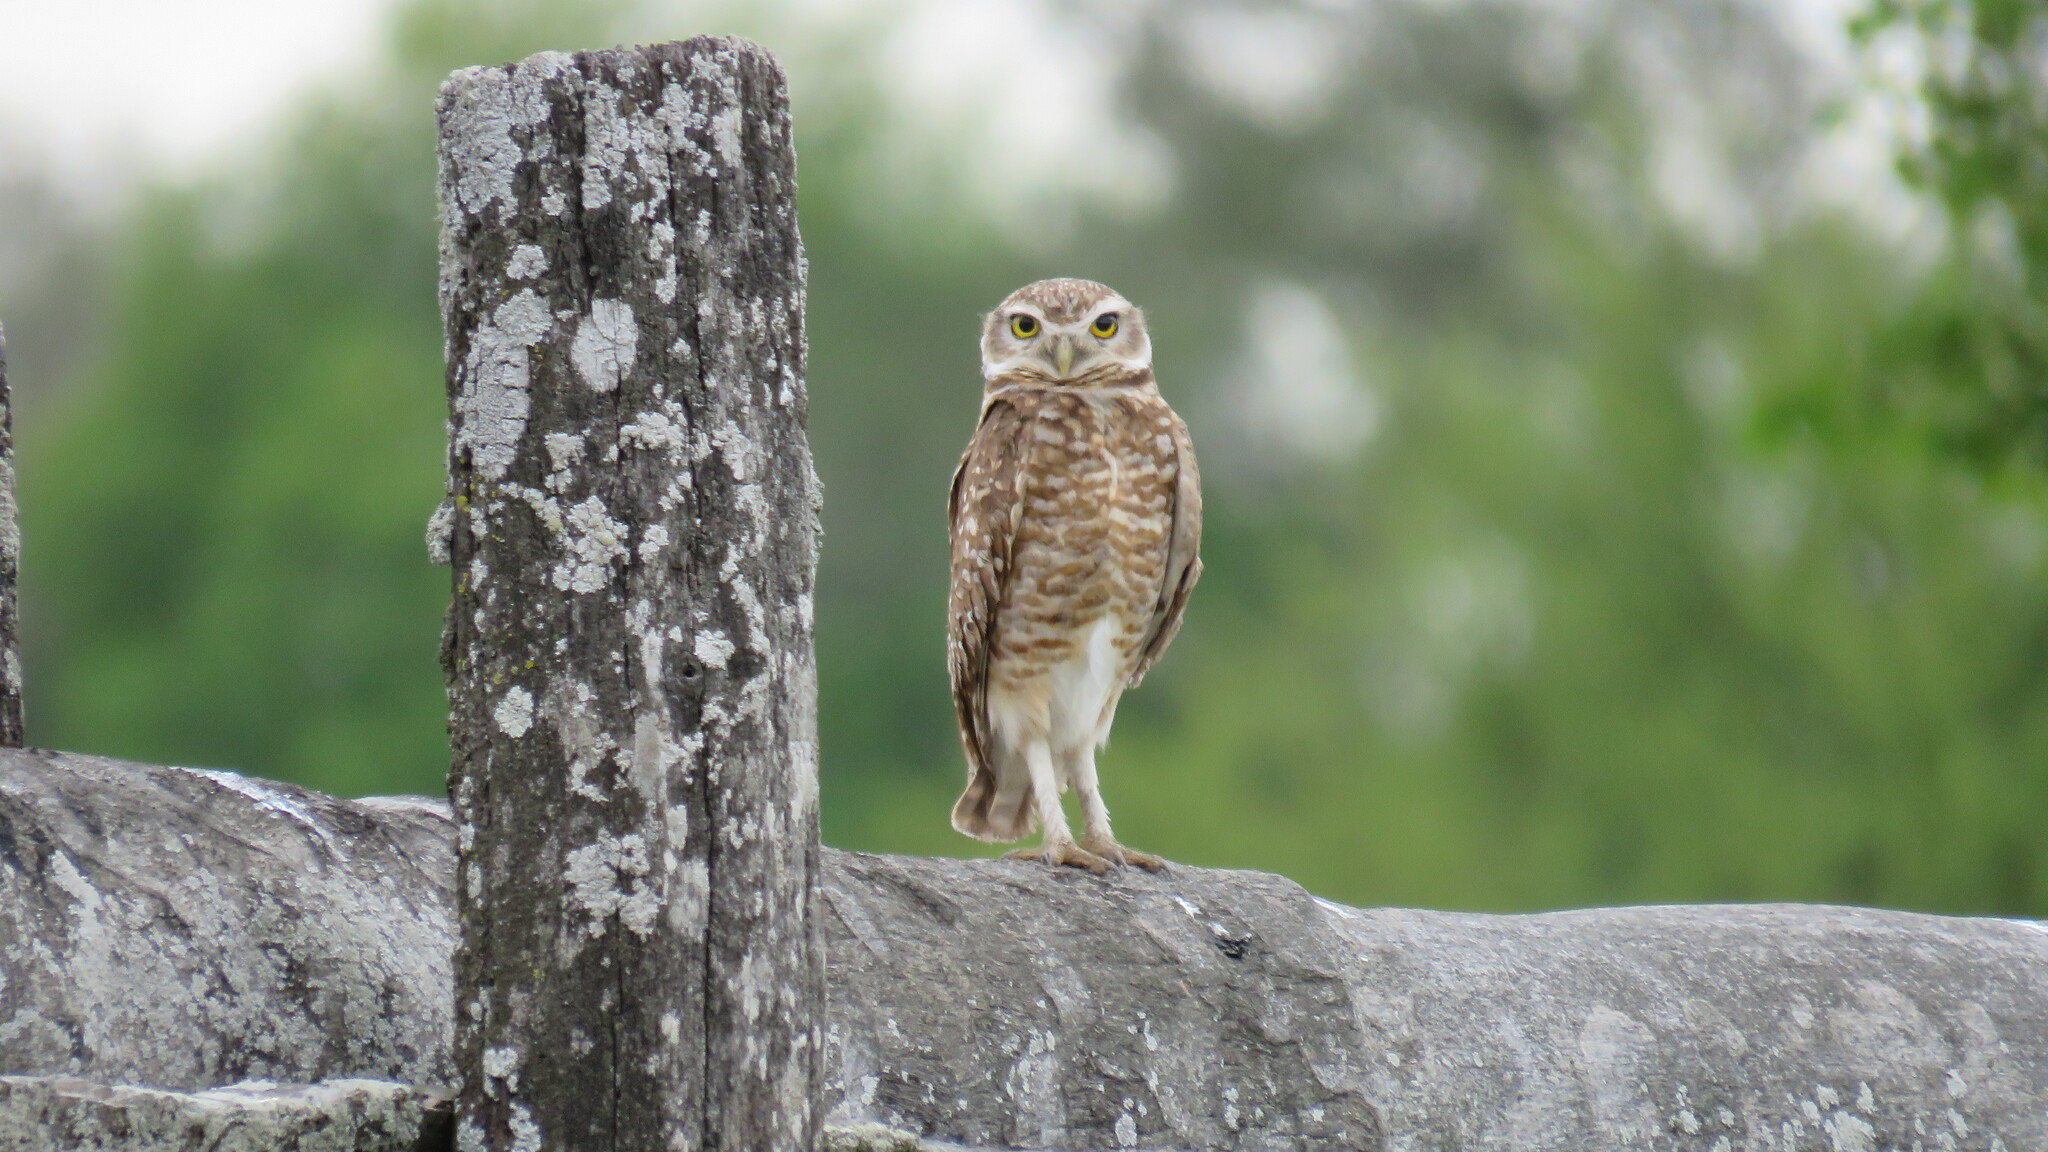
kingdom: Animalia
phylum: Chordata
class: Aves
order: Strigiformes
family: Strigidae
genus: Athene
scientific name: Athene cunicularia
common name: Burrowing owl
